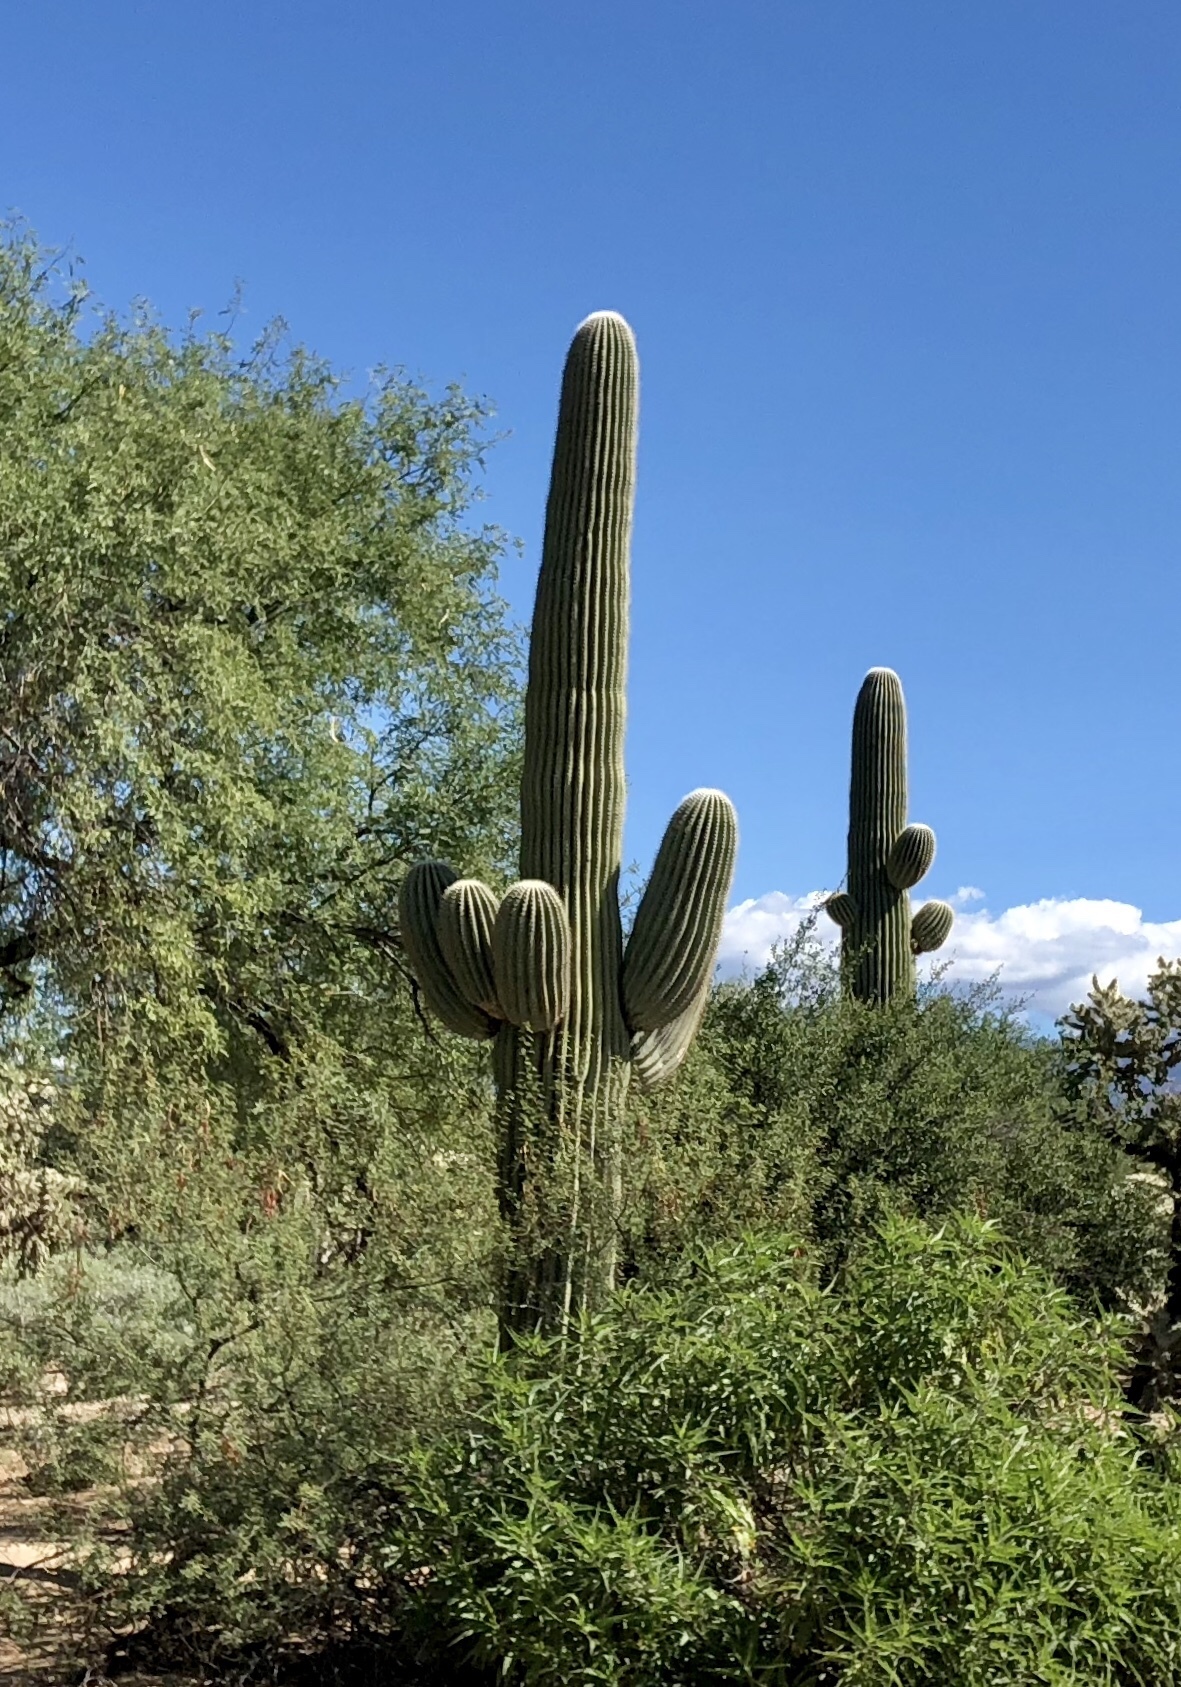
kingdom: Plantae
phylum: Tracheophyta
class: Magnoliopsida
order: Caryophyllales
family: Cactaceae
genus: Carnegiea
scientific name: Carnegiea gigantea
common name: Saguaro
